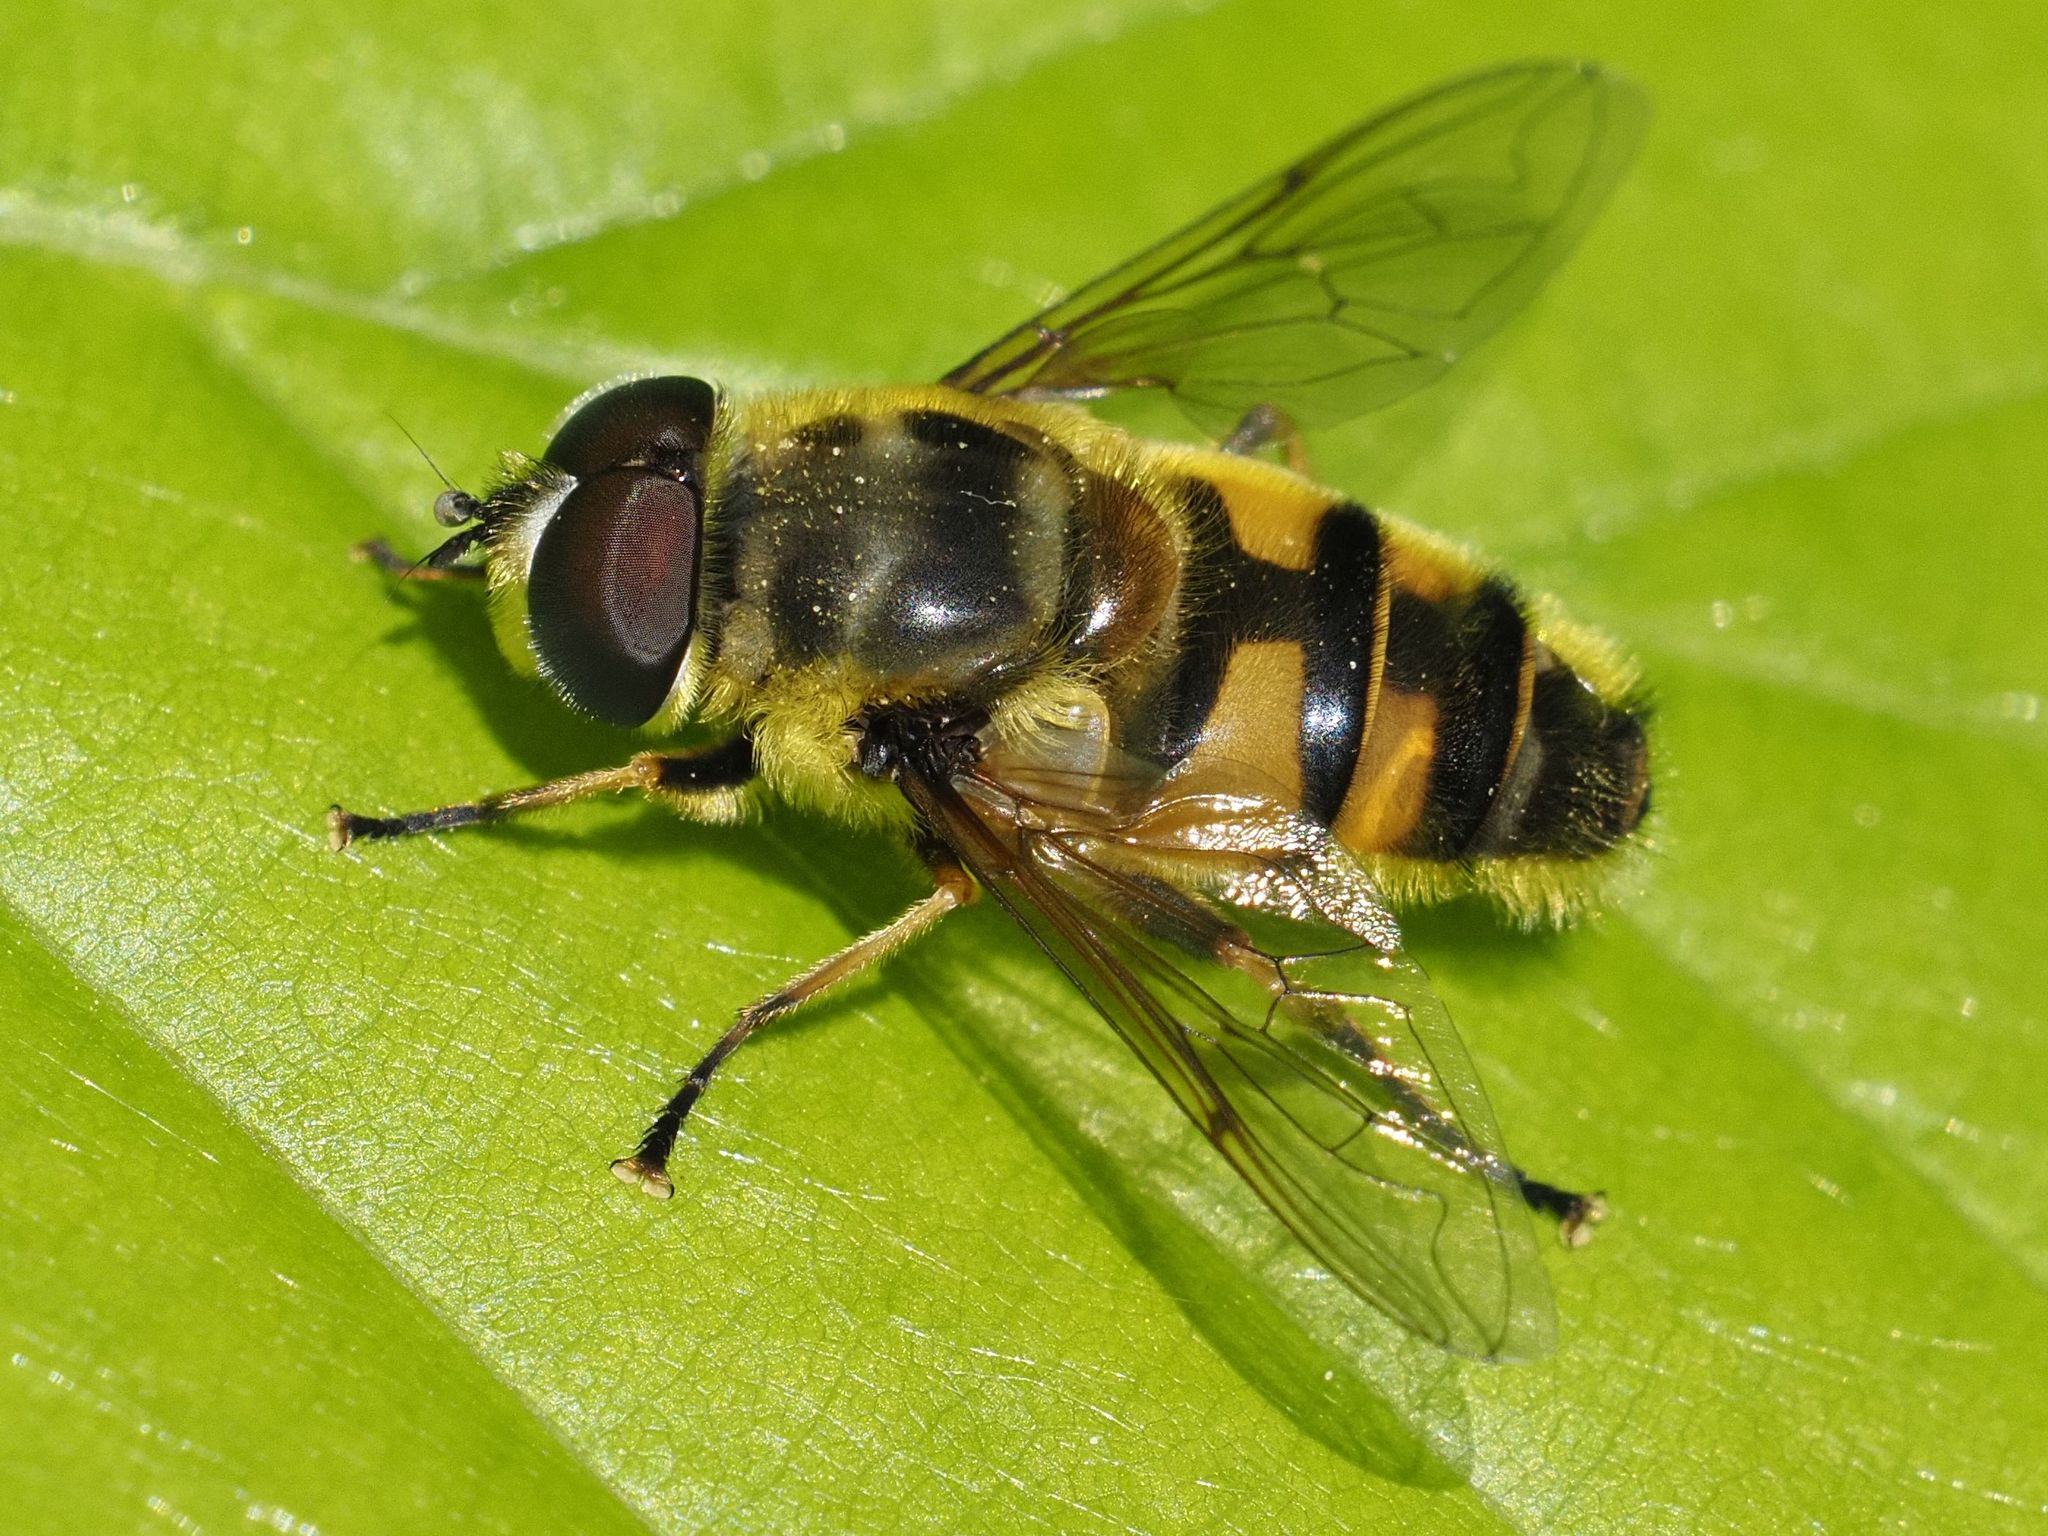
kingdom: Animalia
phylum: Arthropoda
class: Insecta
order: Diptera
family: Syrphidae
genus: Myathropa
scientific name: Myathropa florea
